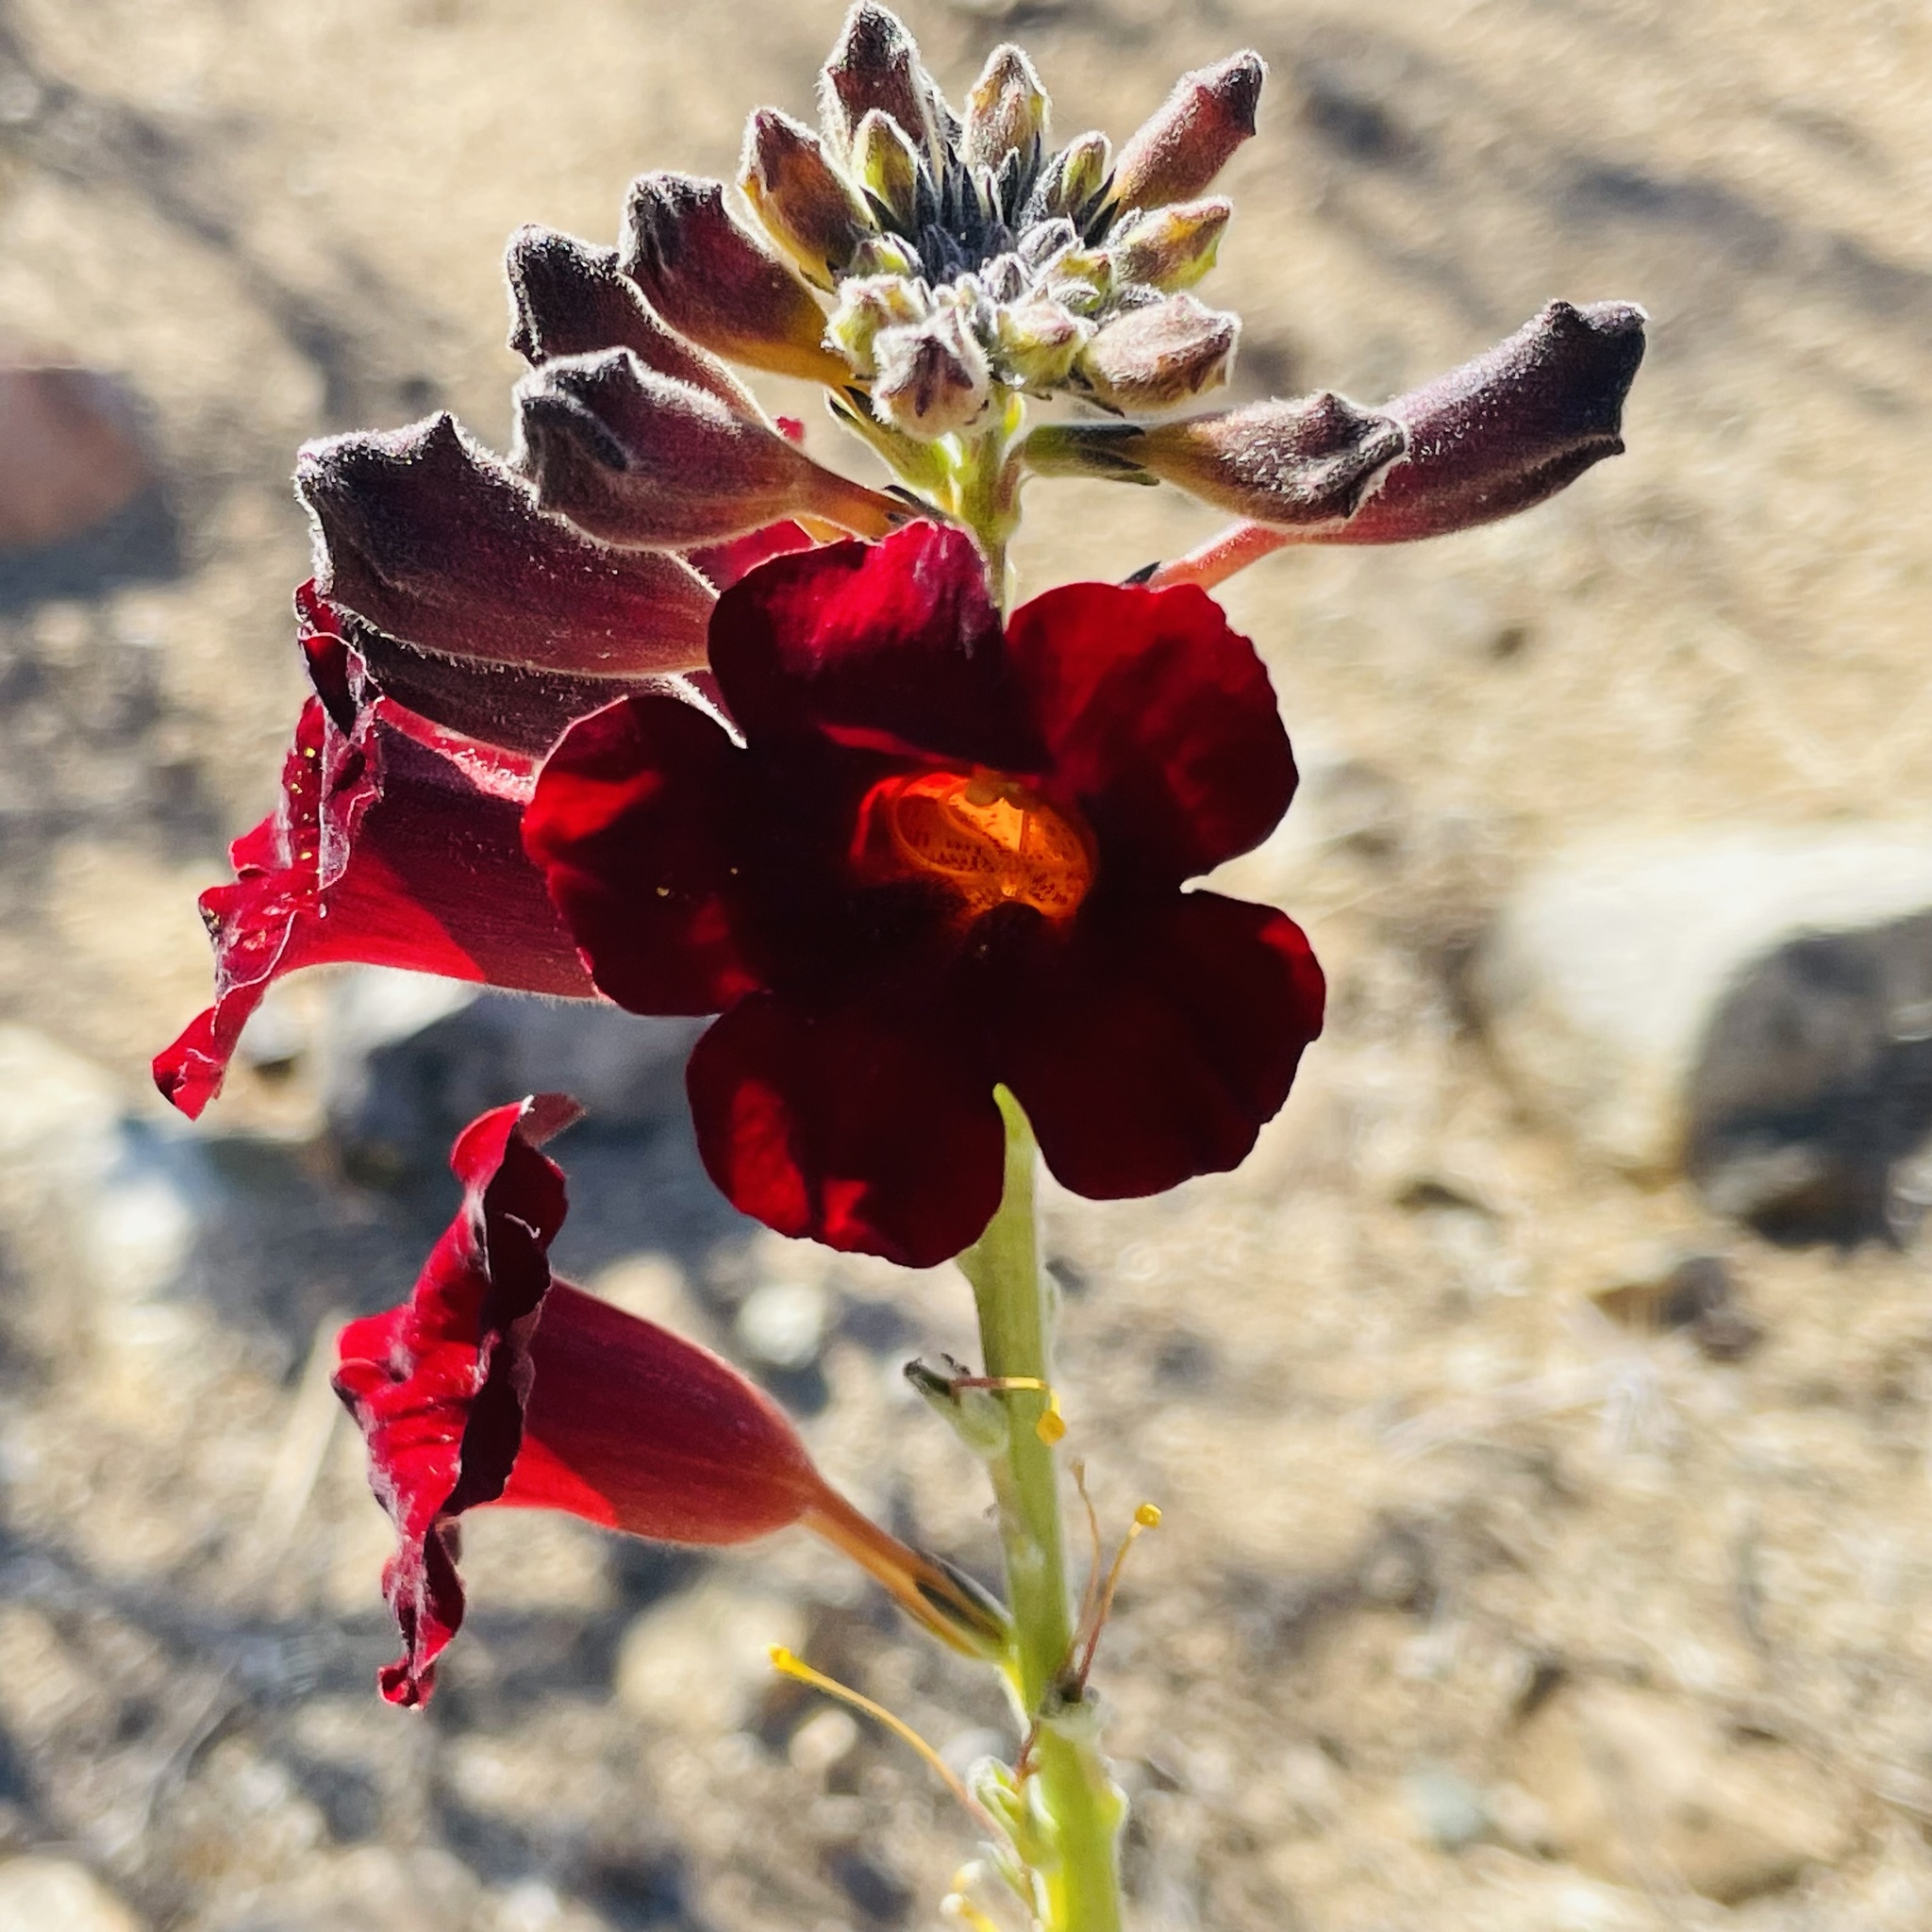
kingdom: Plantae
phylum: Tracheophyta
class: Magnoliopsida
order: Lamiales
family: Bignoniaceae
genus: Argylia
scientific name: Argylia radiata
